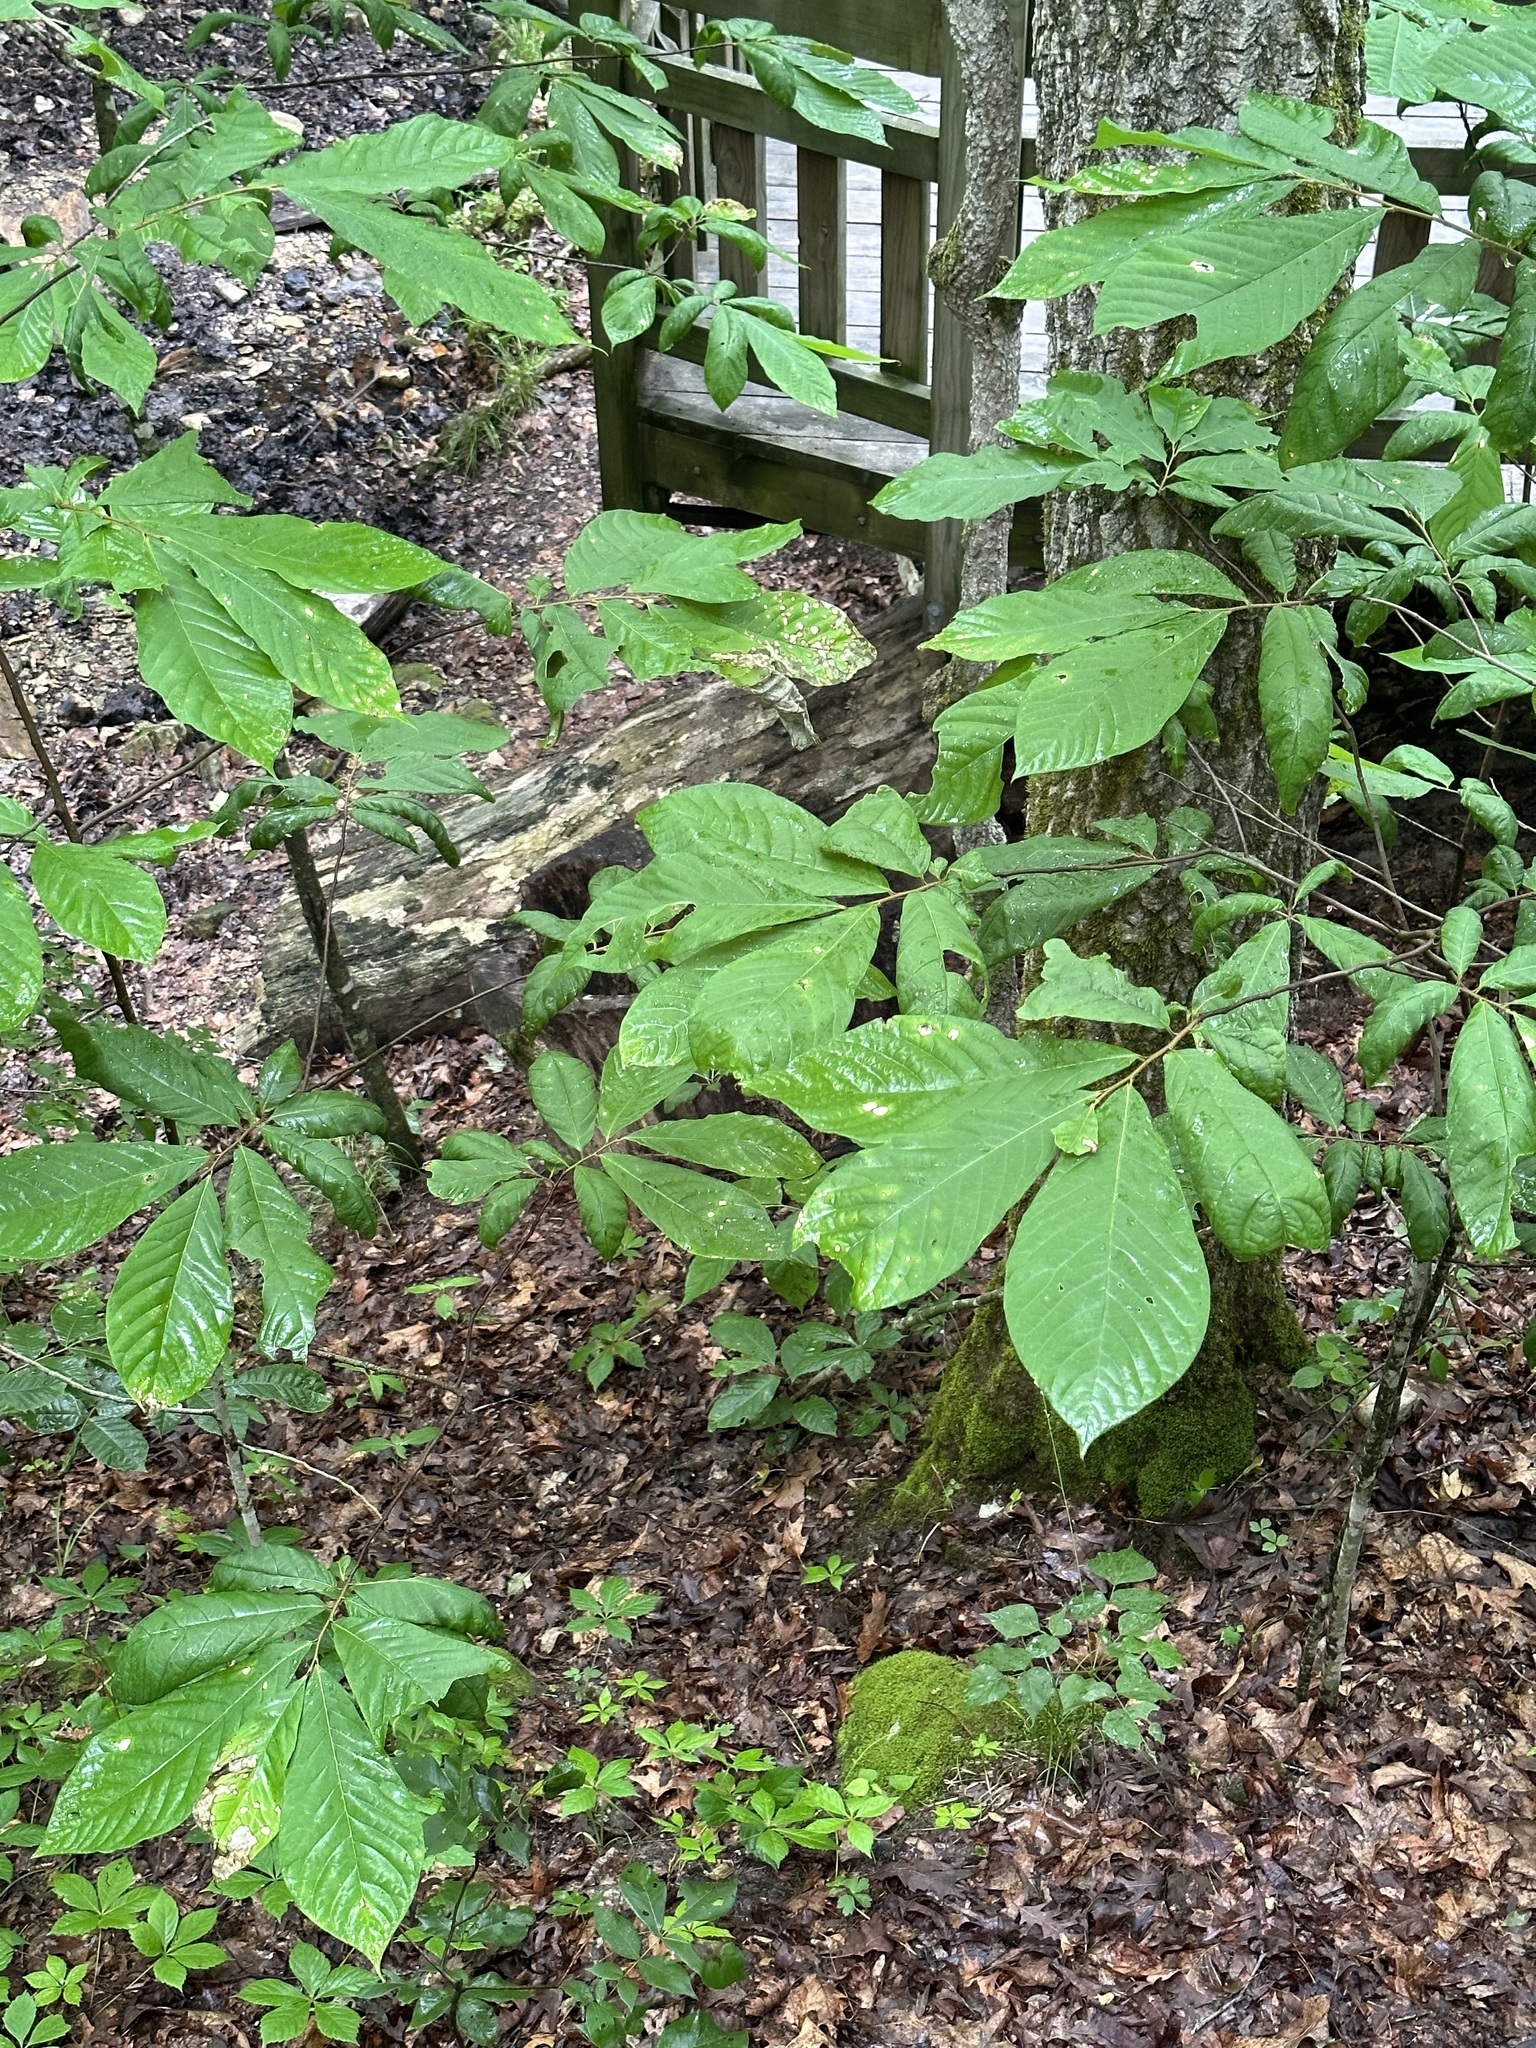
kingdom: Plantae
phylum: Tracheophyta
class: Magnoliopsida
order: Magnoliales
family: Annonaceae
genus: Asimina
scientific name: Asimina triloba
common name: Dog-banana
